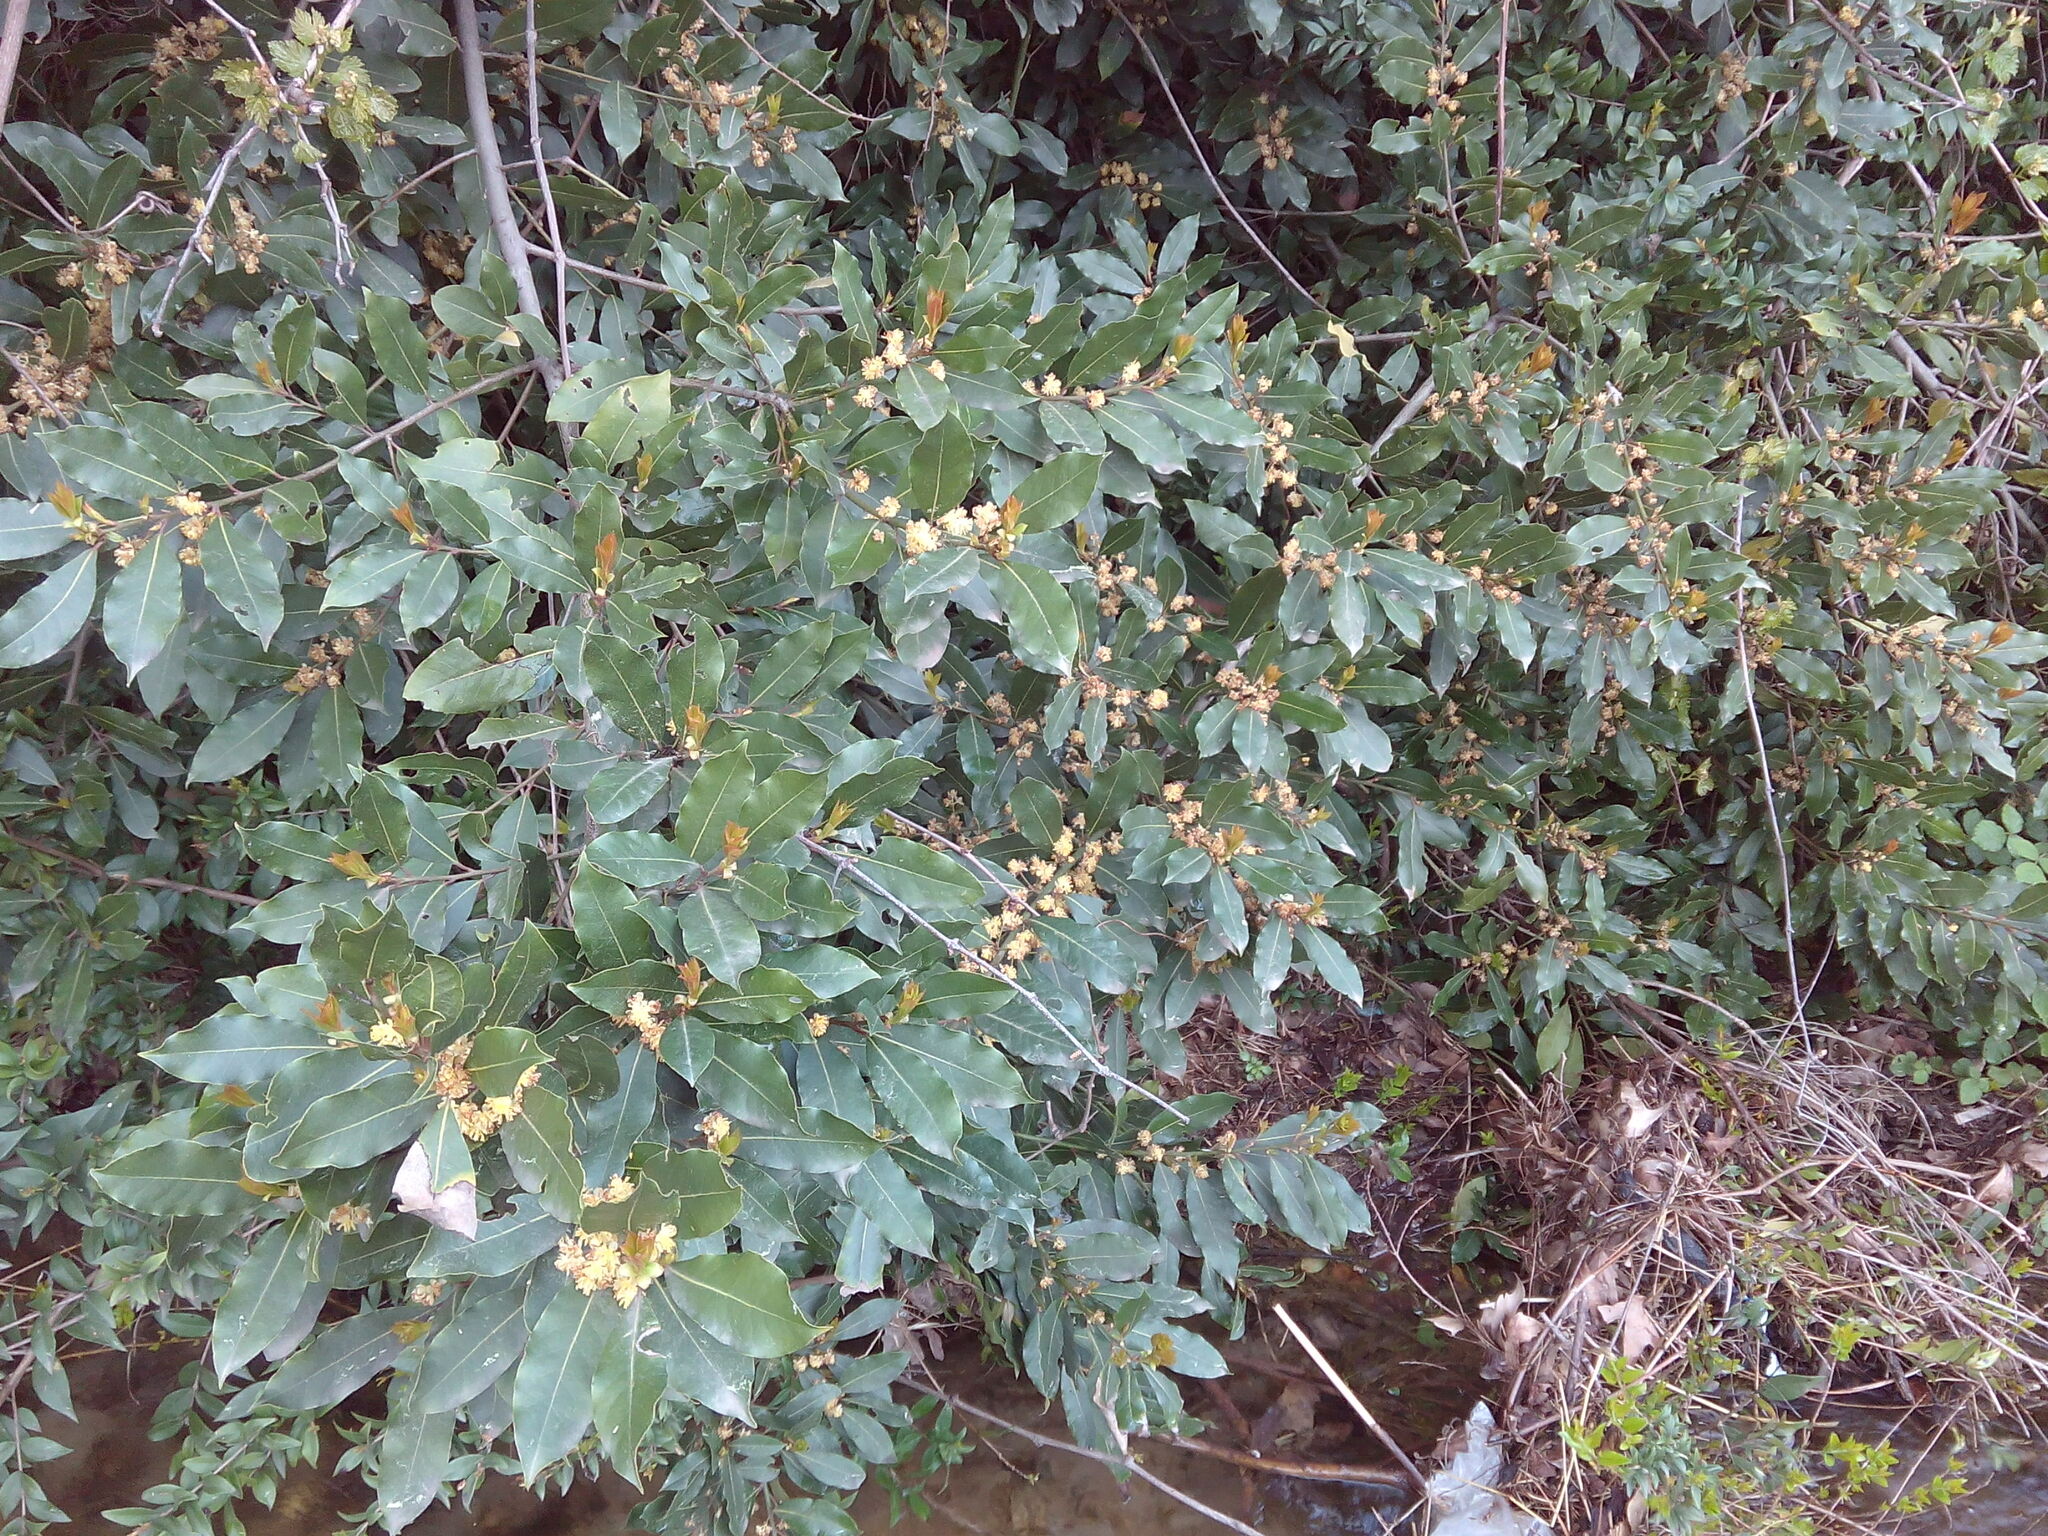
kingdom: Plantae
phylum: Tracheophyta
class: Magnoliopsida
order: Laurales
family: Lauraceae
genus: Laurus
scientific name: Laurus nobilis
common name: Bay
